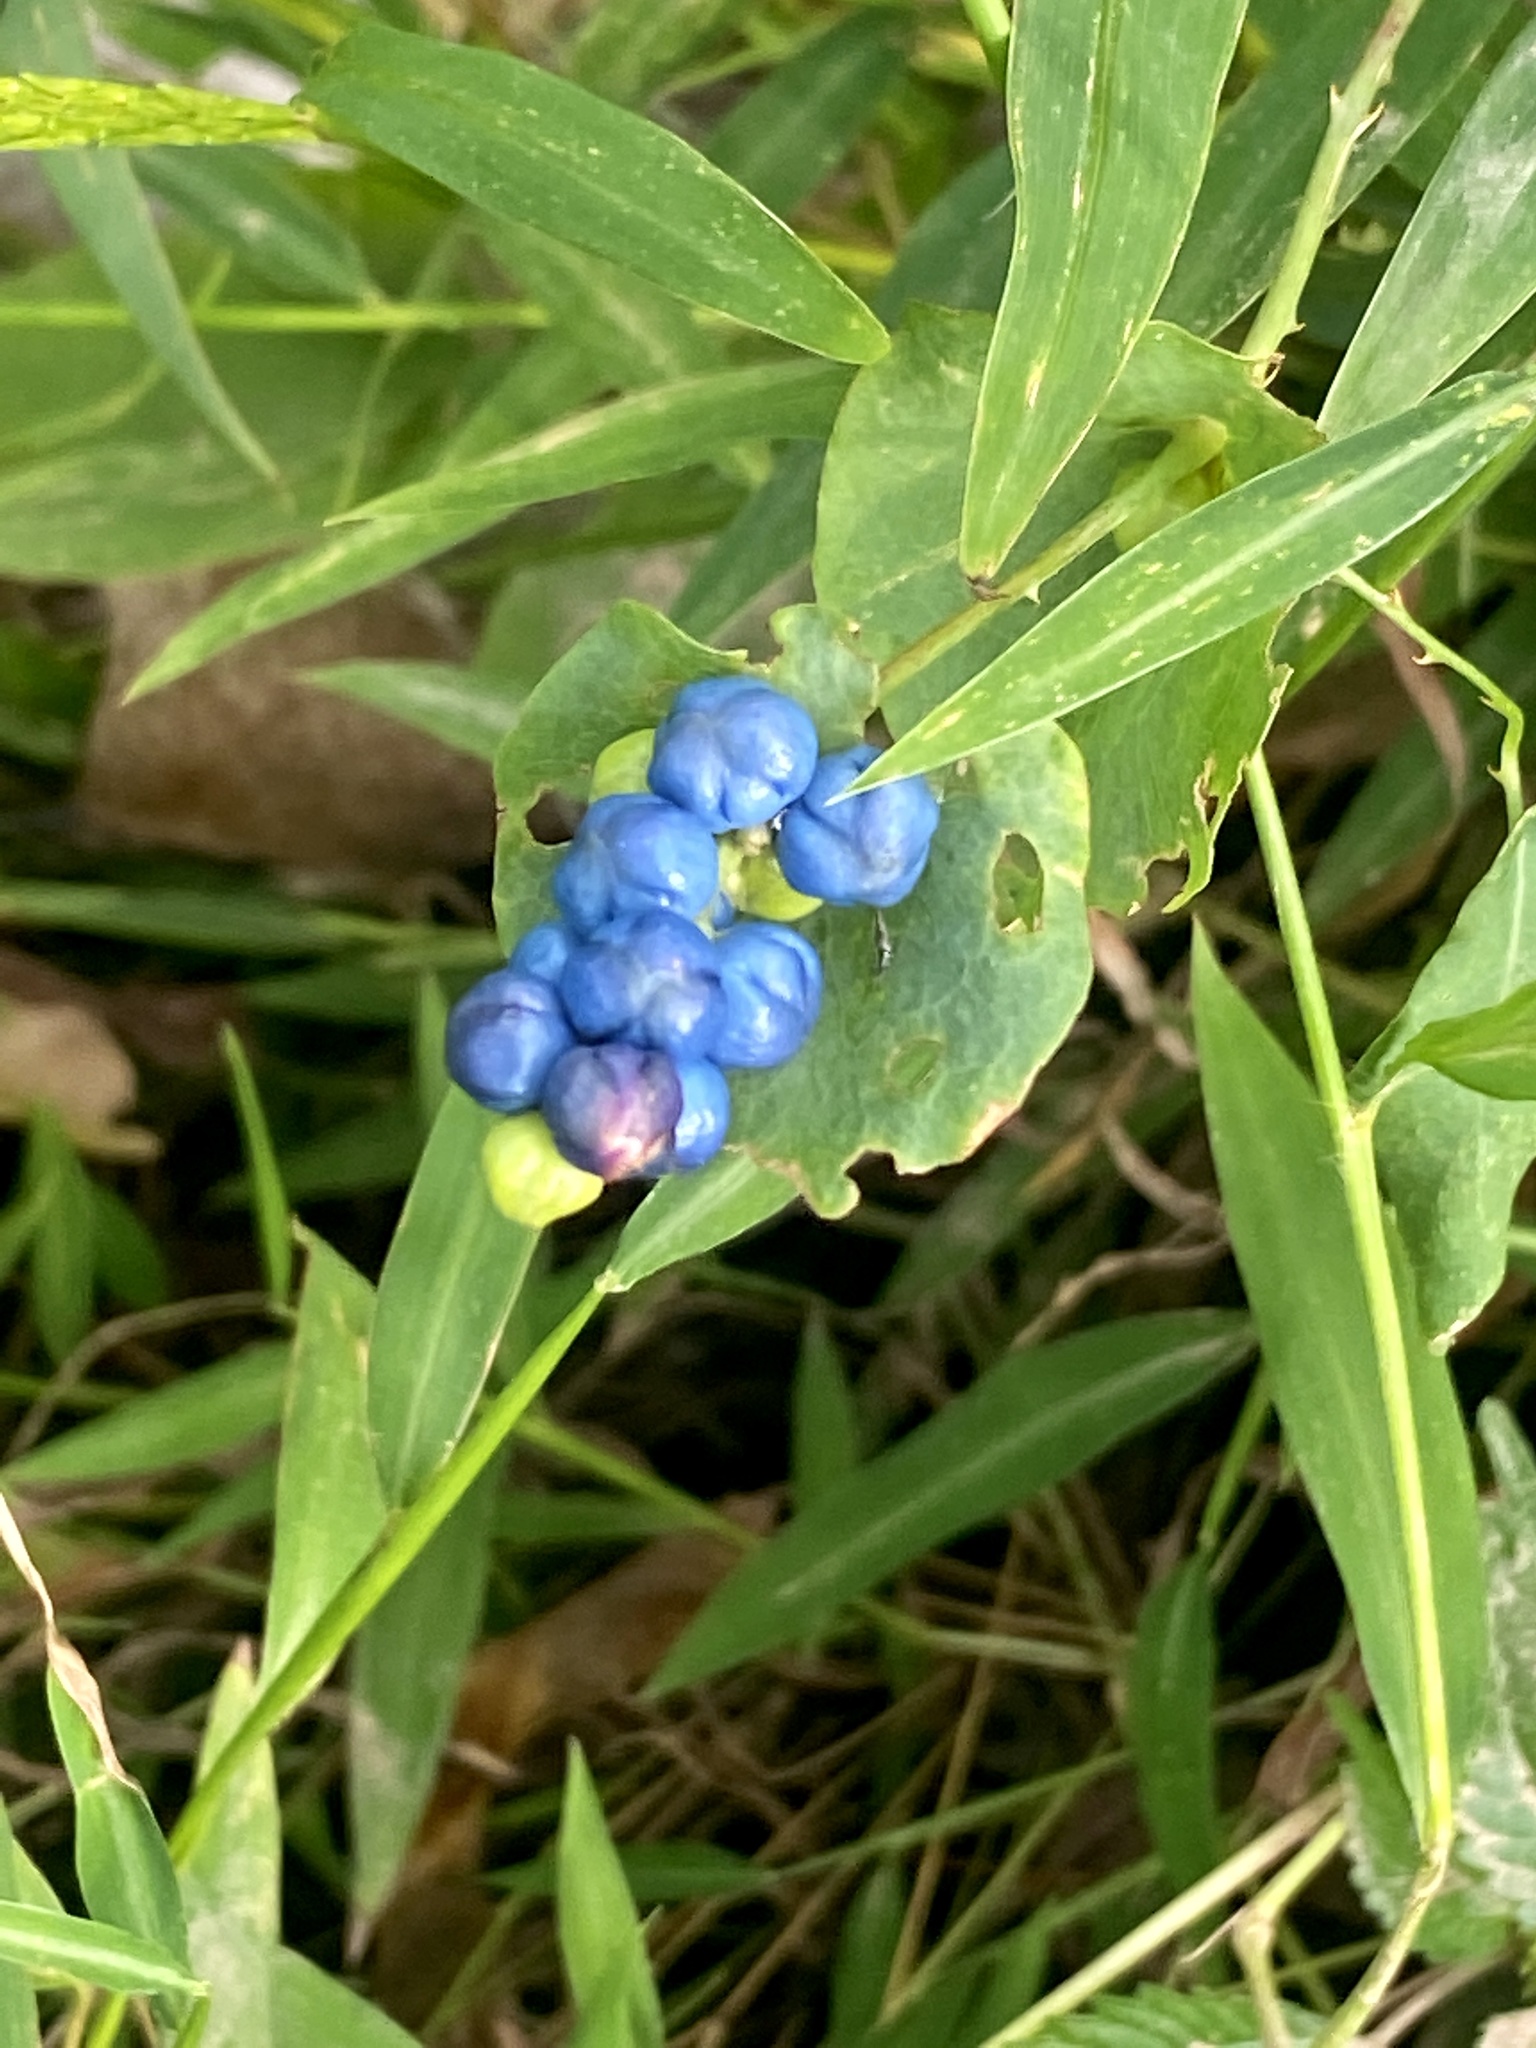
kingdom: Plantae
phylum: Tracheophyta
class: Magnoliopsida
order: Caryophyllales
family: Polygonaceae
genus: Persicaria
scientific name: Persicaria perfoliata
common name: Asiatic tearthumb
